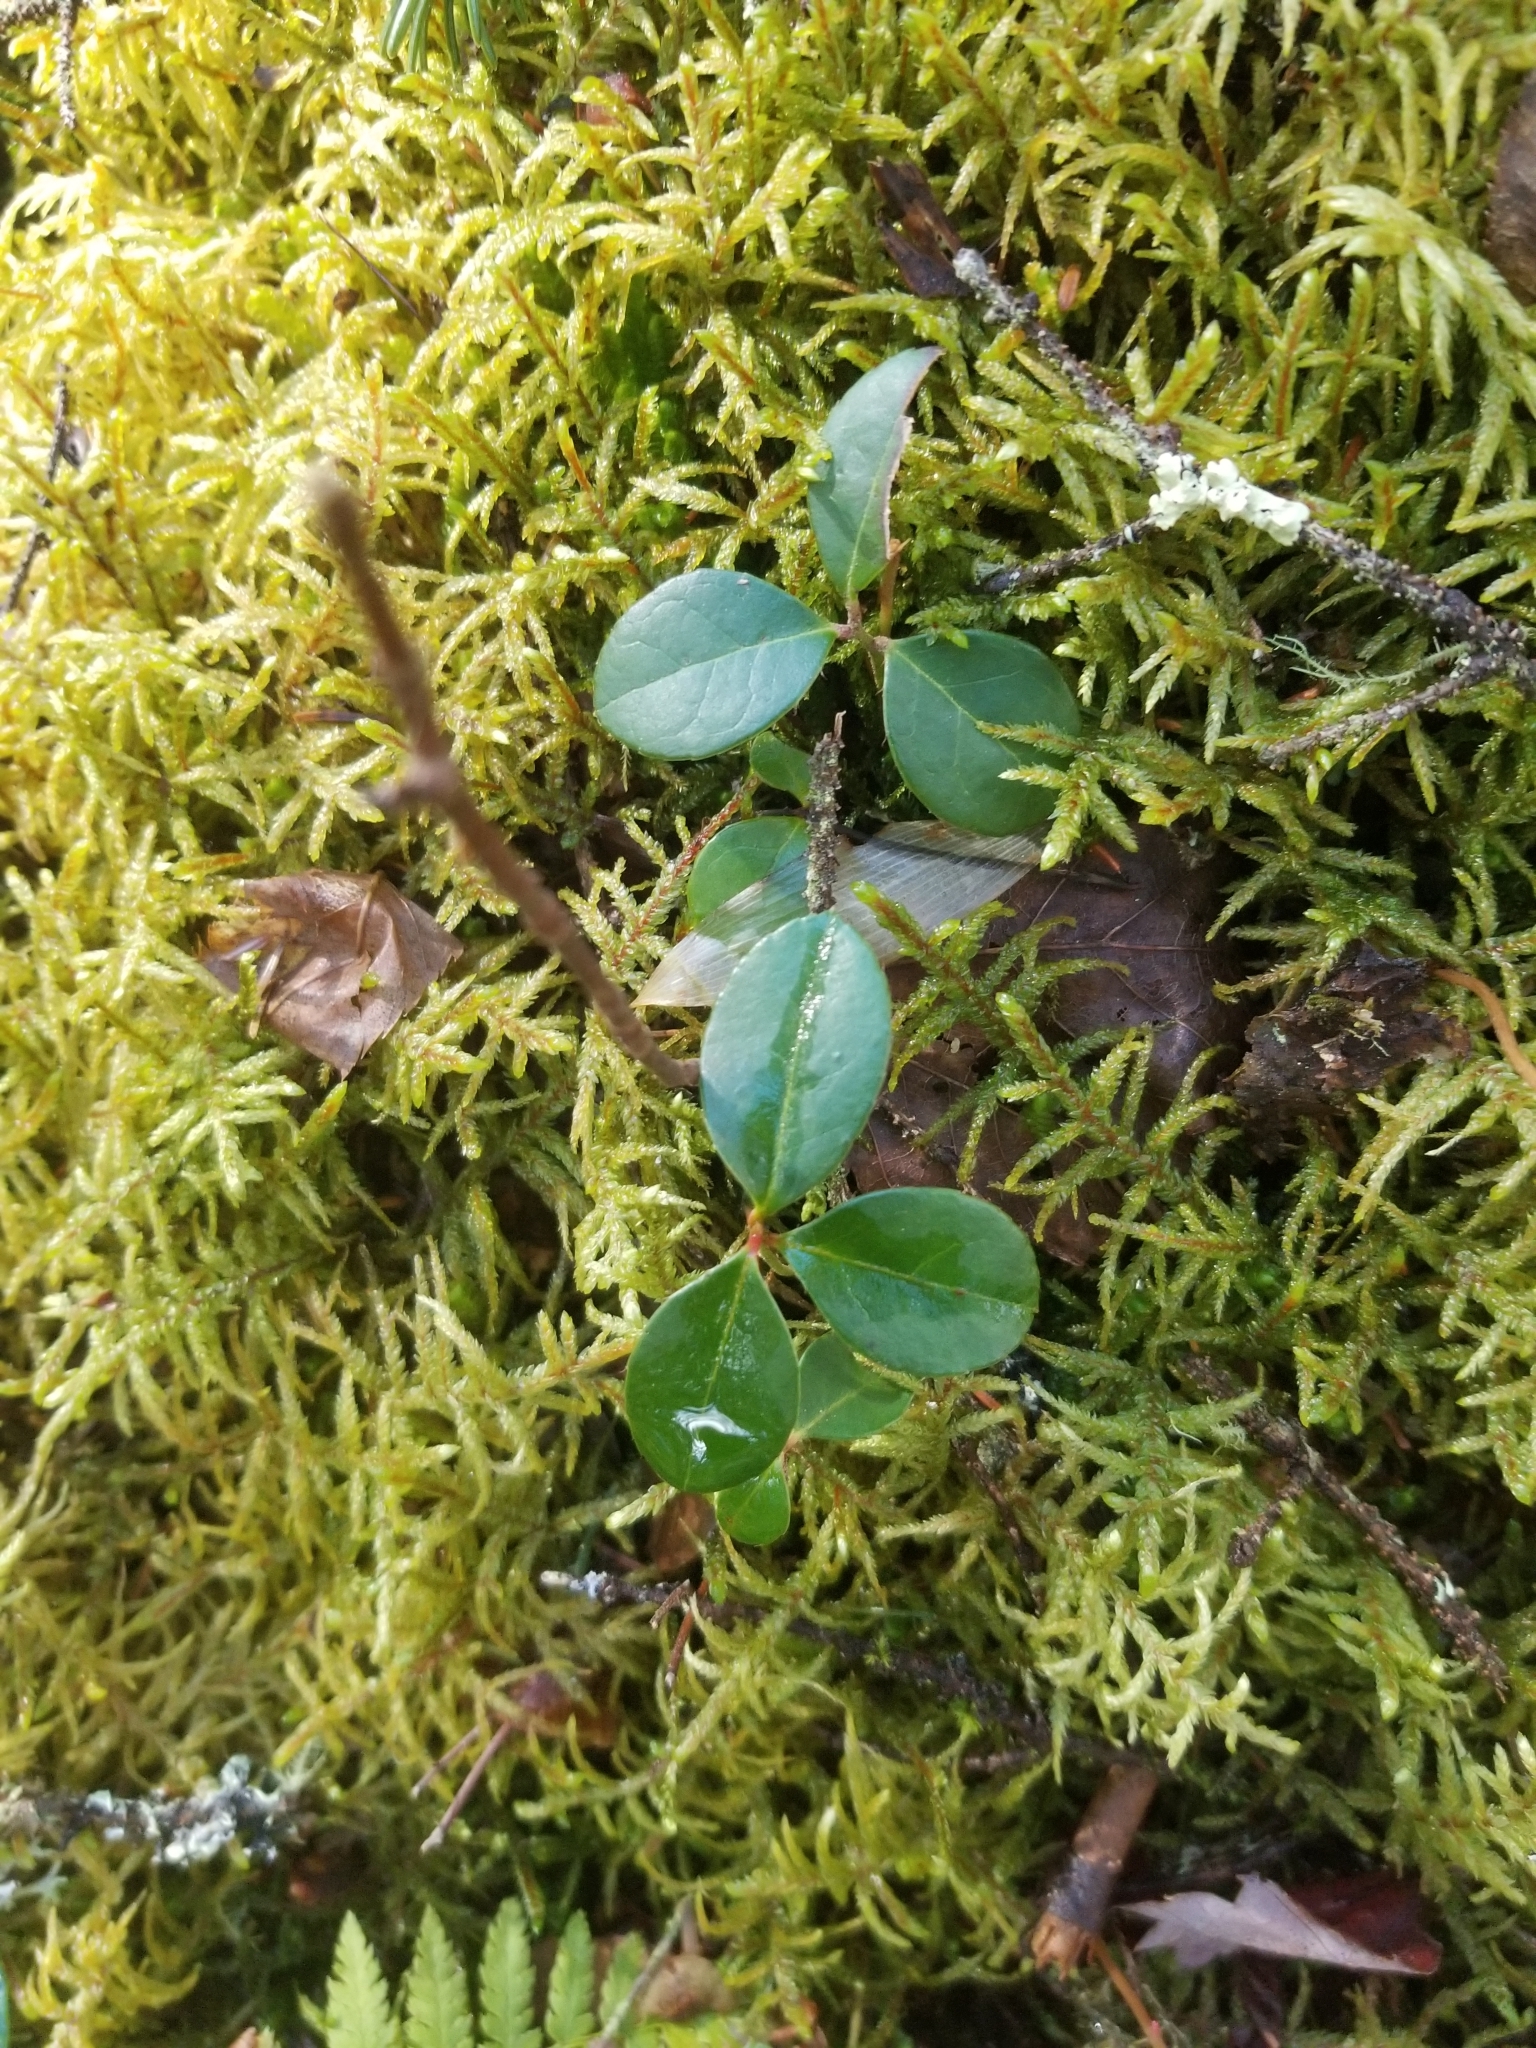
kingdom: Plantae
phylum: Tracheophyta
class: Magnoliopsida
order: Ericales
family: Ericaceae
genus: Gaultheria
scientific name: Gaultheria procumbens
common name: Checkerberry
